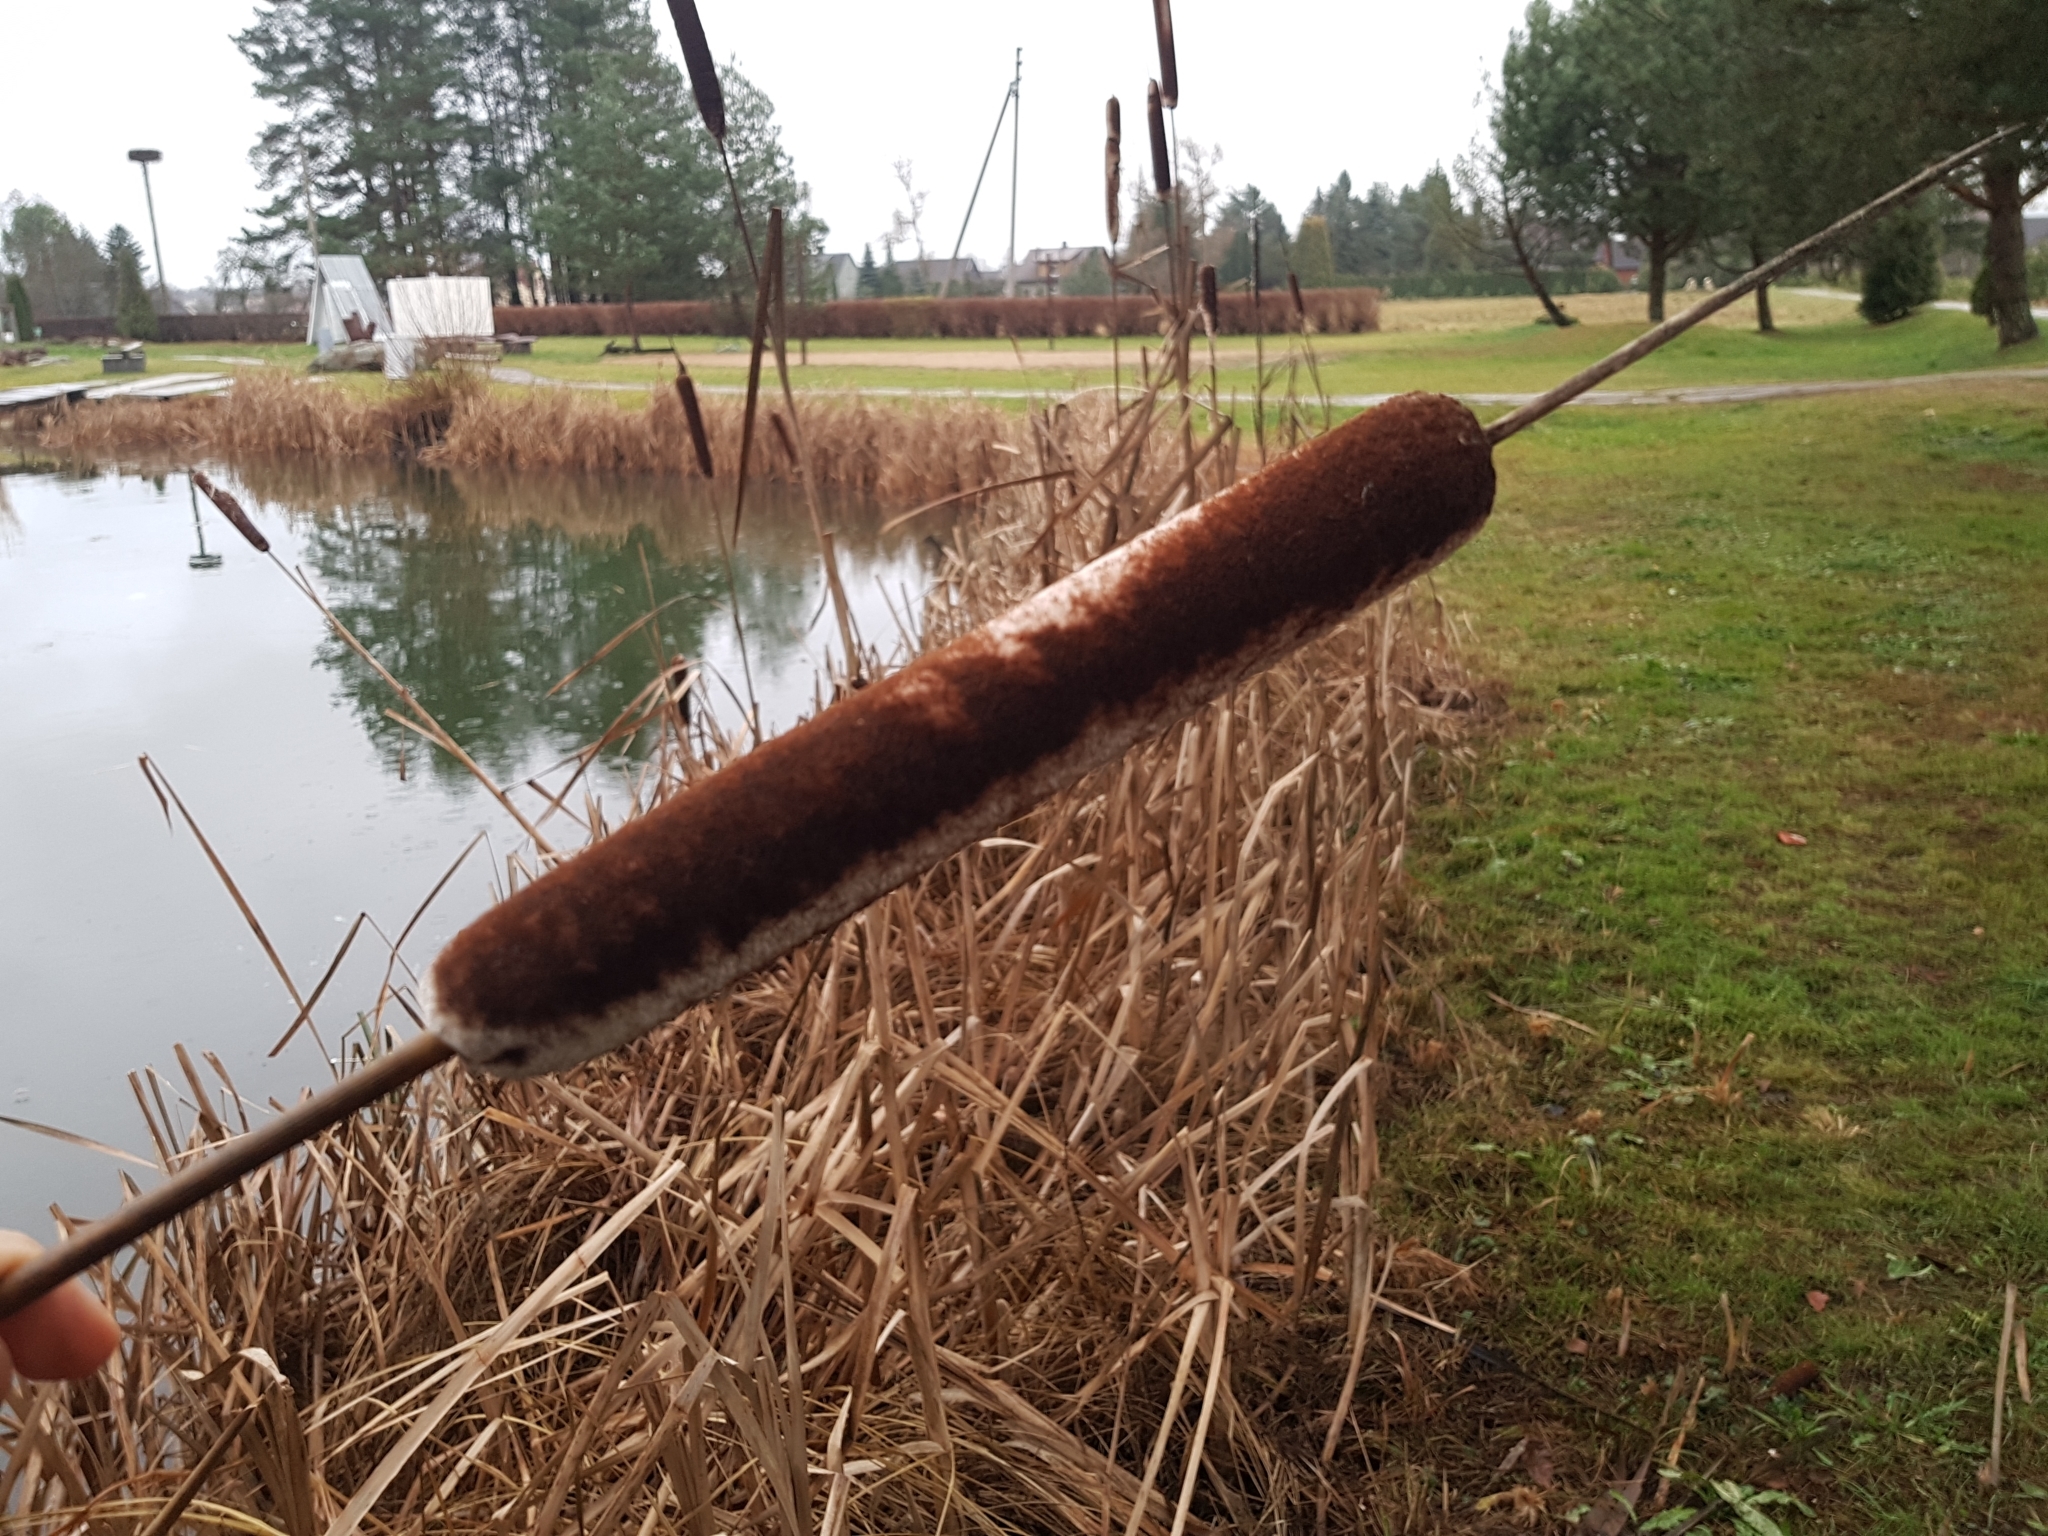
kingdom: Plantae
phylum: Tracheophyta
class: Liliopsida
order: Poales
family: Typhaceae
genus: Typha
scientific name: Typha latifolia
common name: Broadleaf cattail
